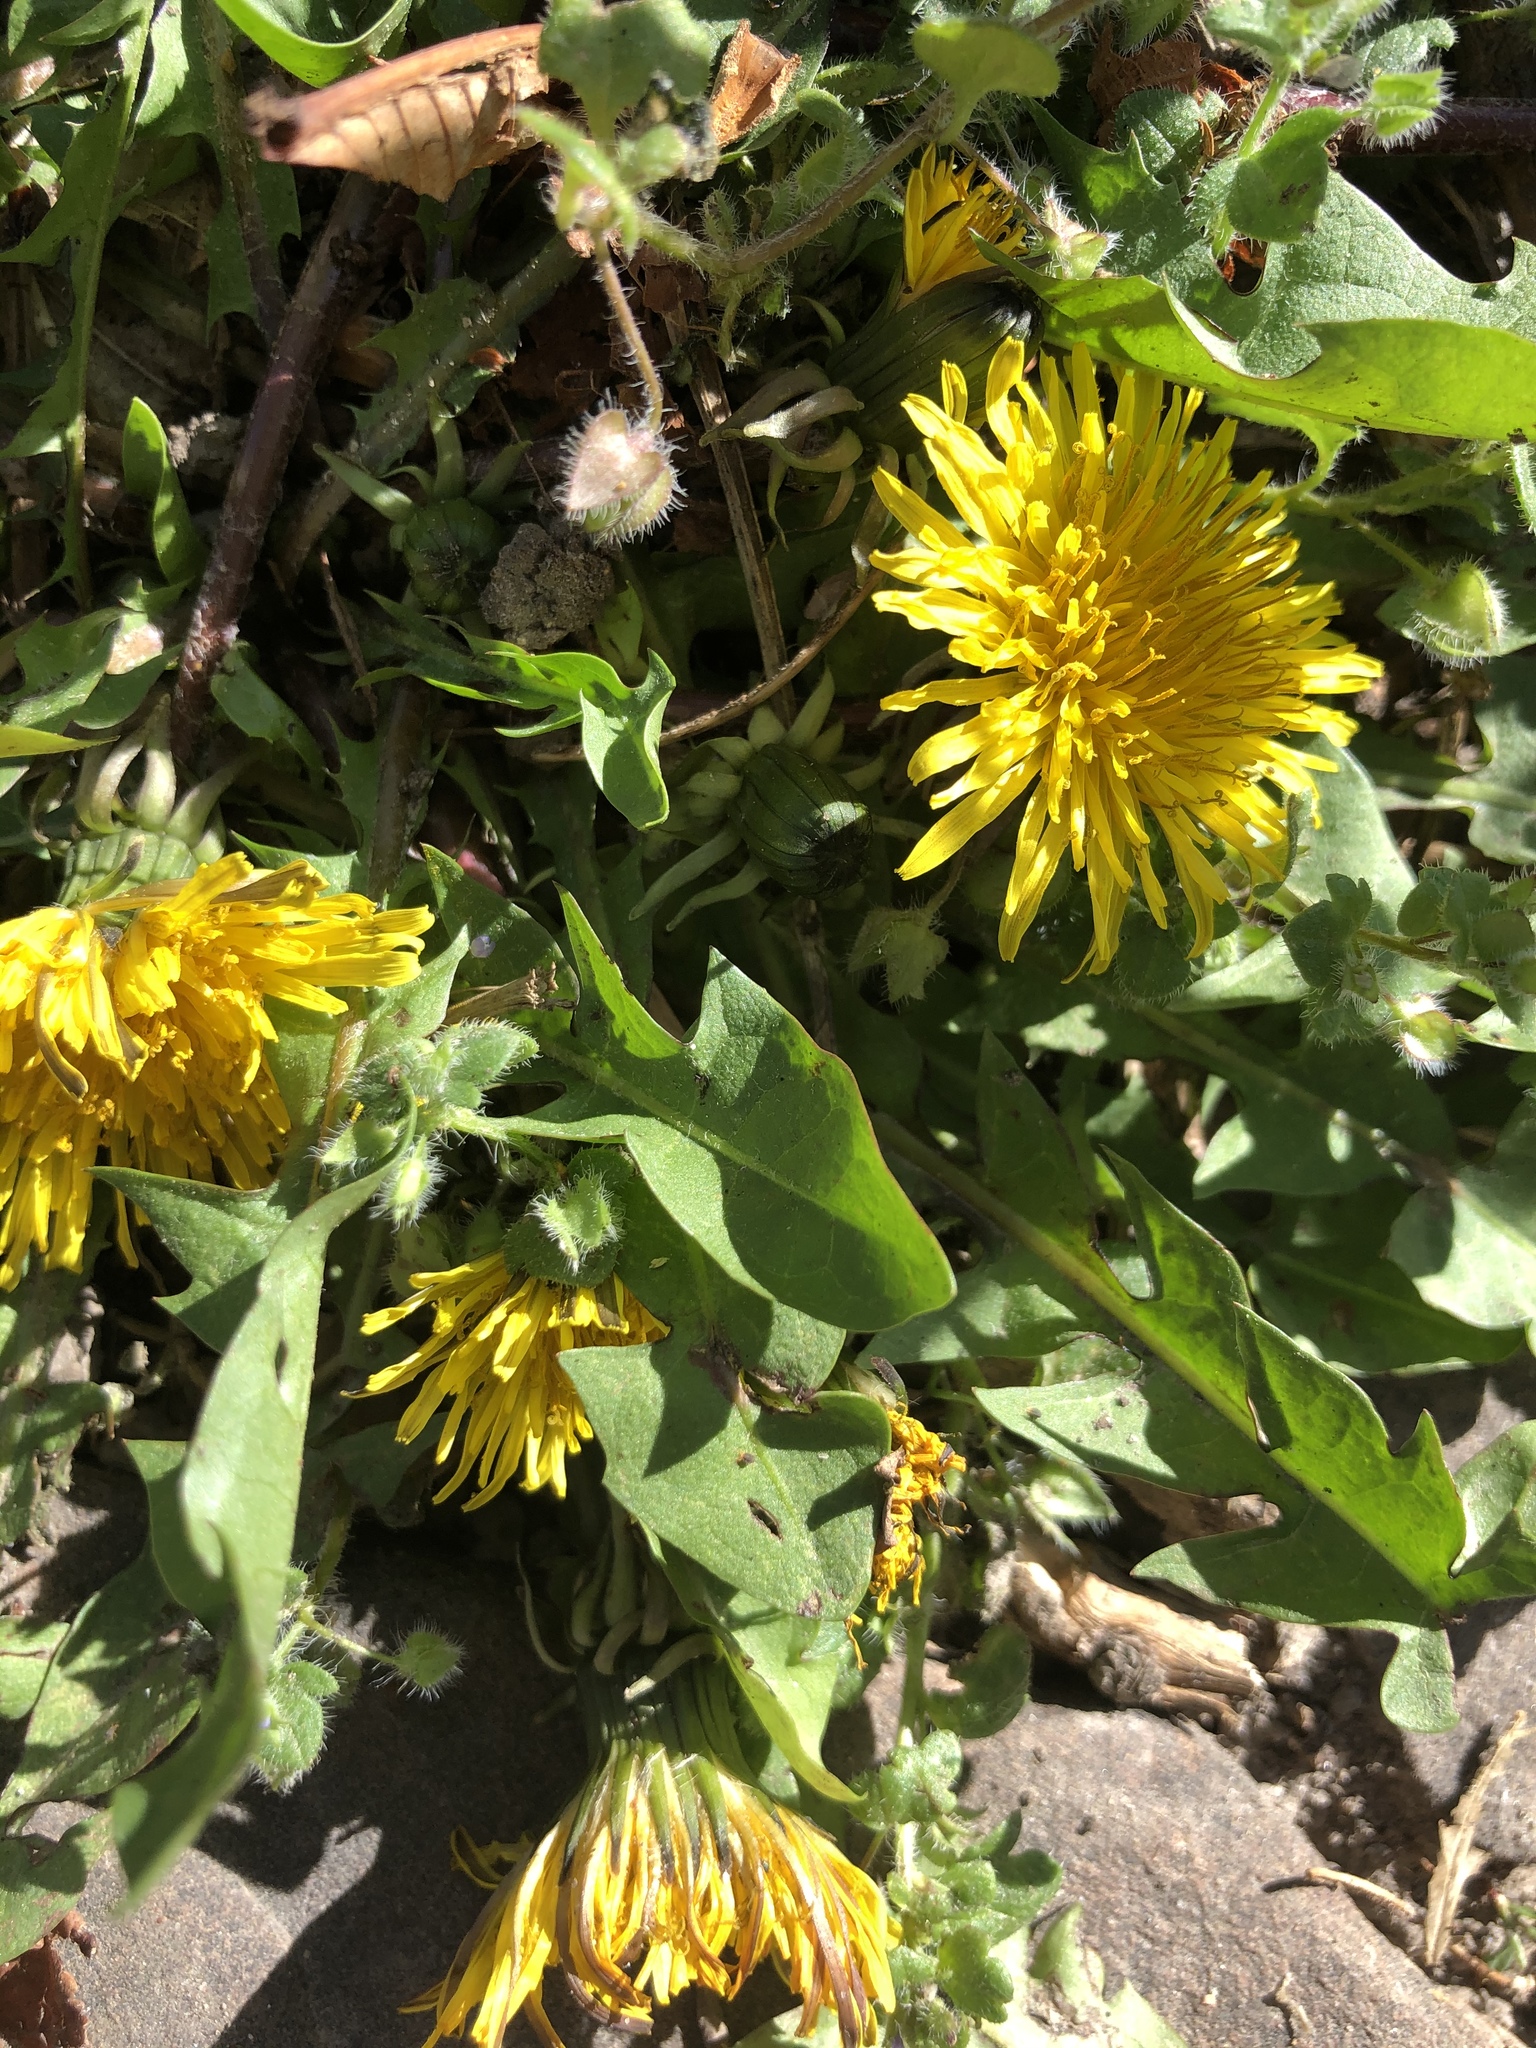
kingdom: Plantae
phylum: Tracheophyta
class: Magnoliopsida
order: Asterales
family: Asteraceae
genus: Taraxacum
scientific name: Taraxacum officinale
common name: Common dandelion
